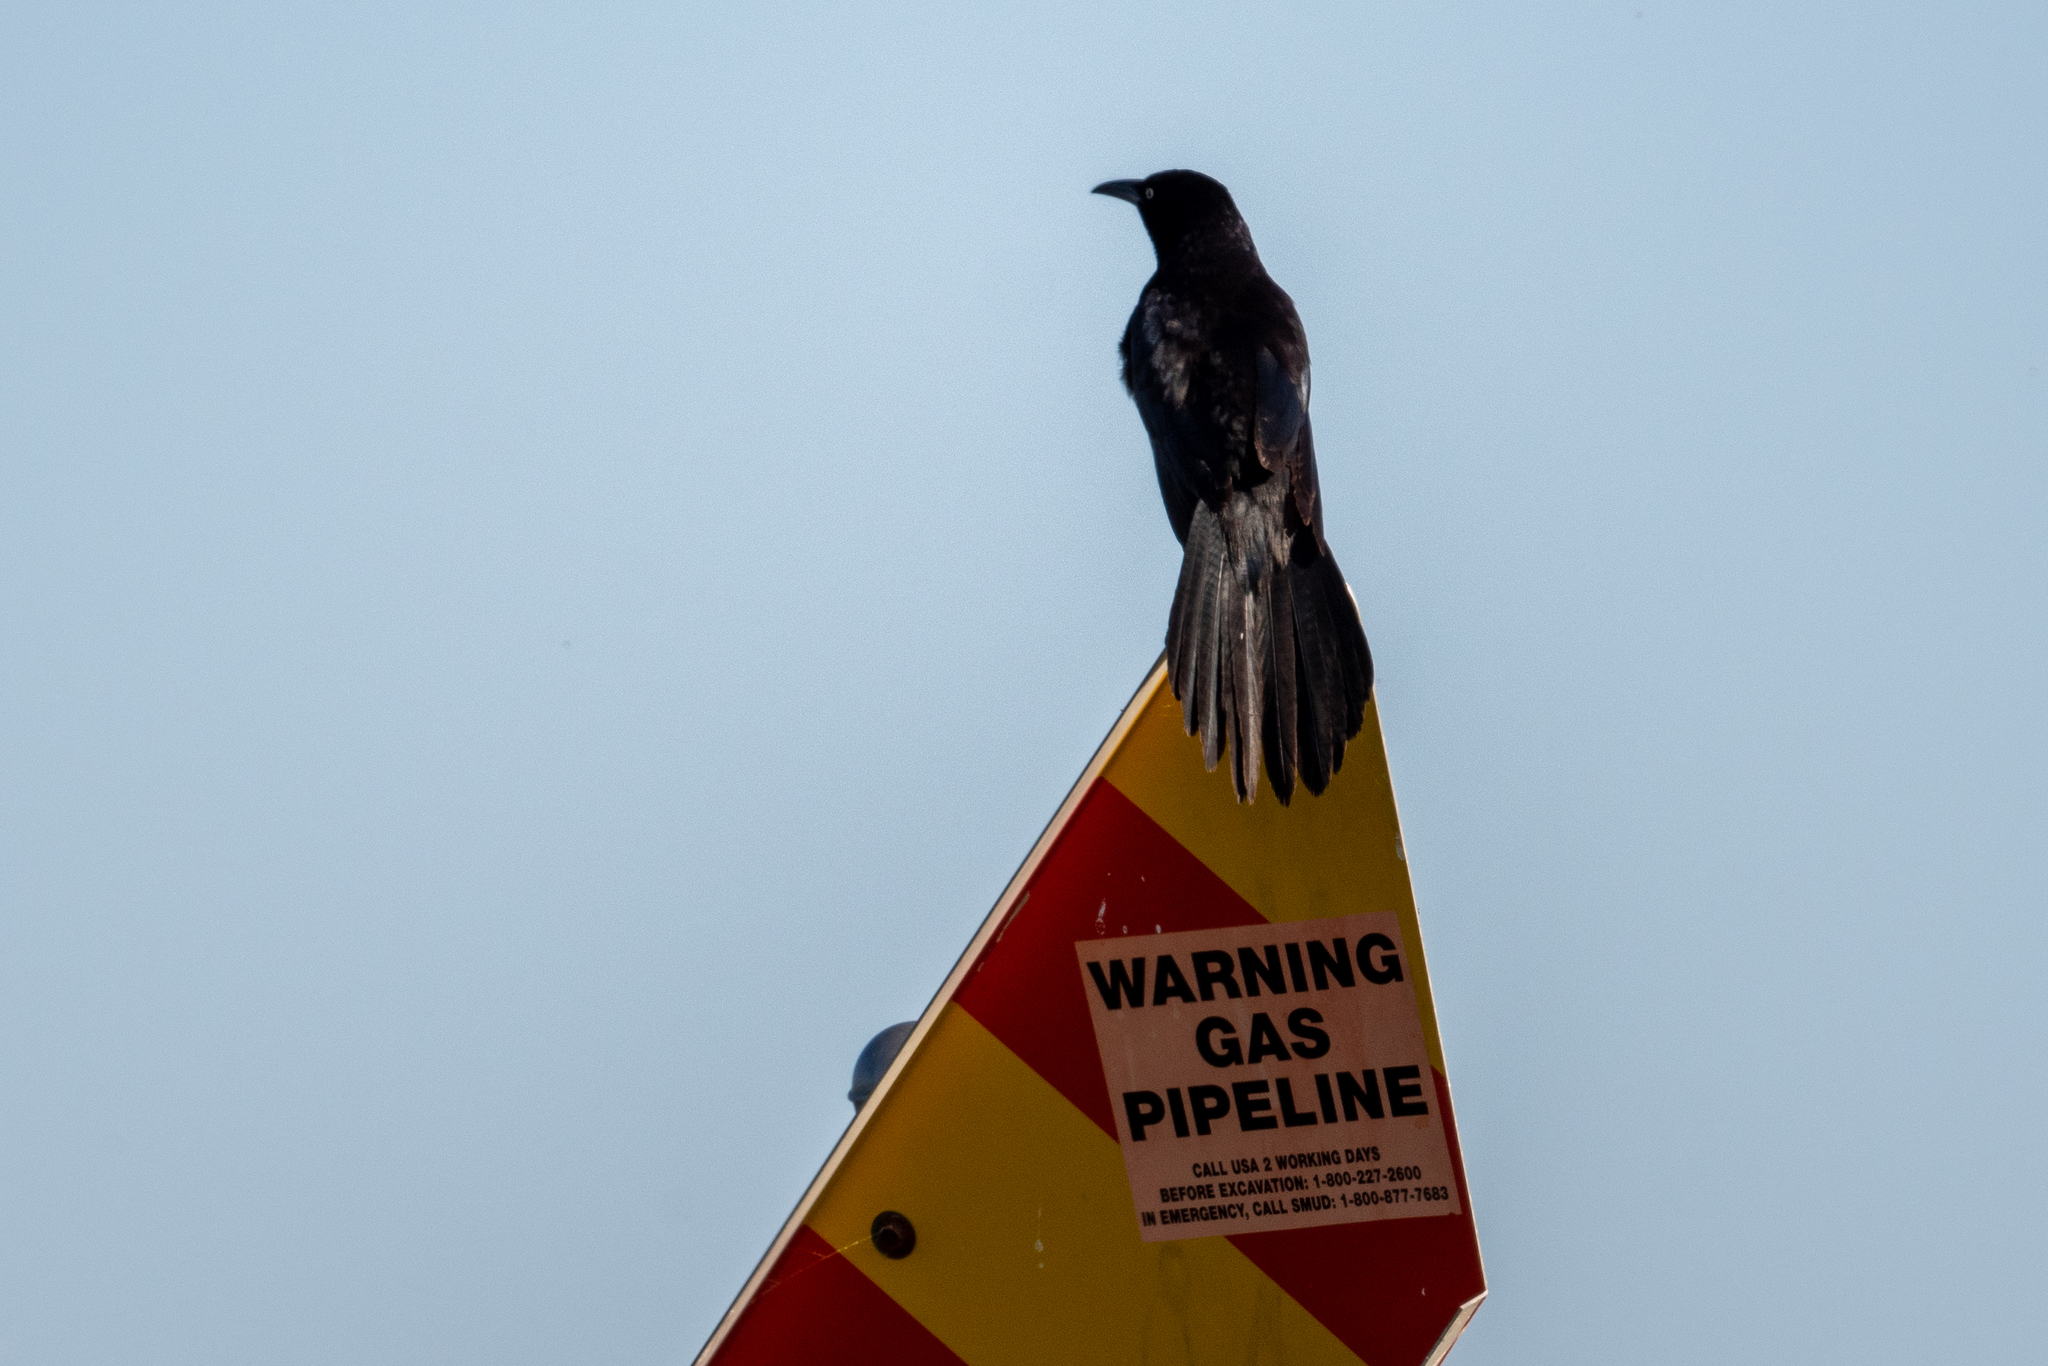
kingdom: Animalia
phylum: Chordata
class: Aves
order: Passeriformes
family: Icteridae
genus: Quiscalus
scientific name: Quiscalus mexicanus
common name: Great-tailed grackle
